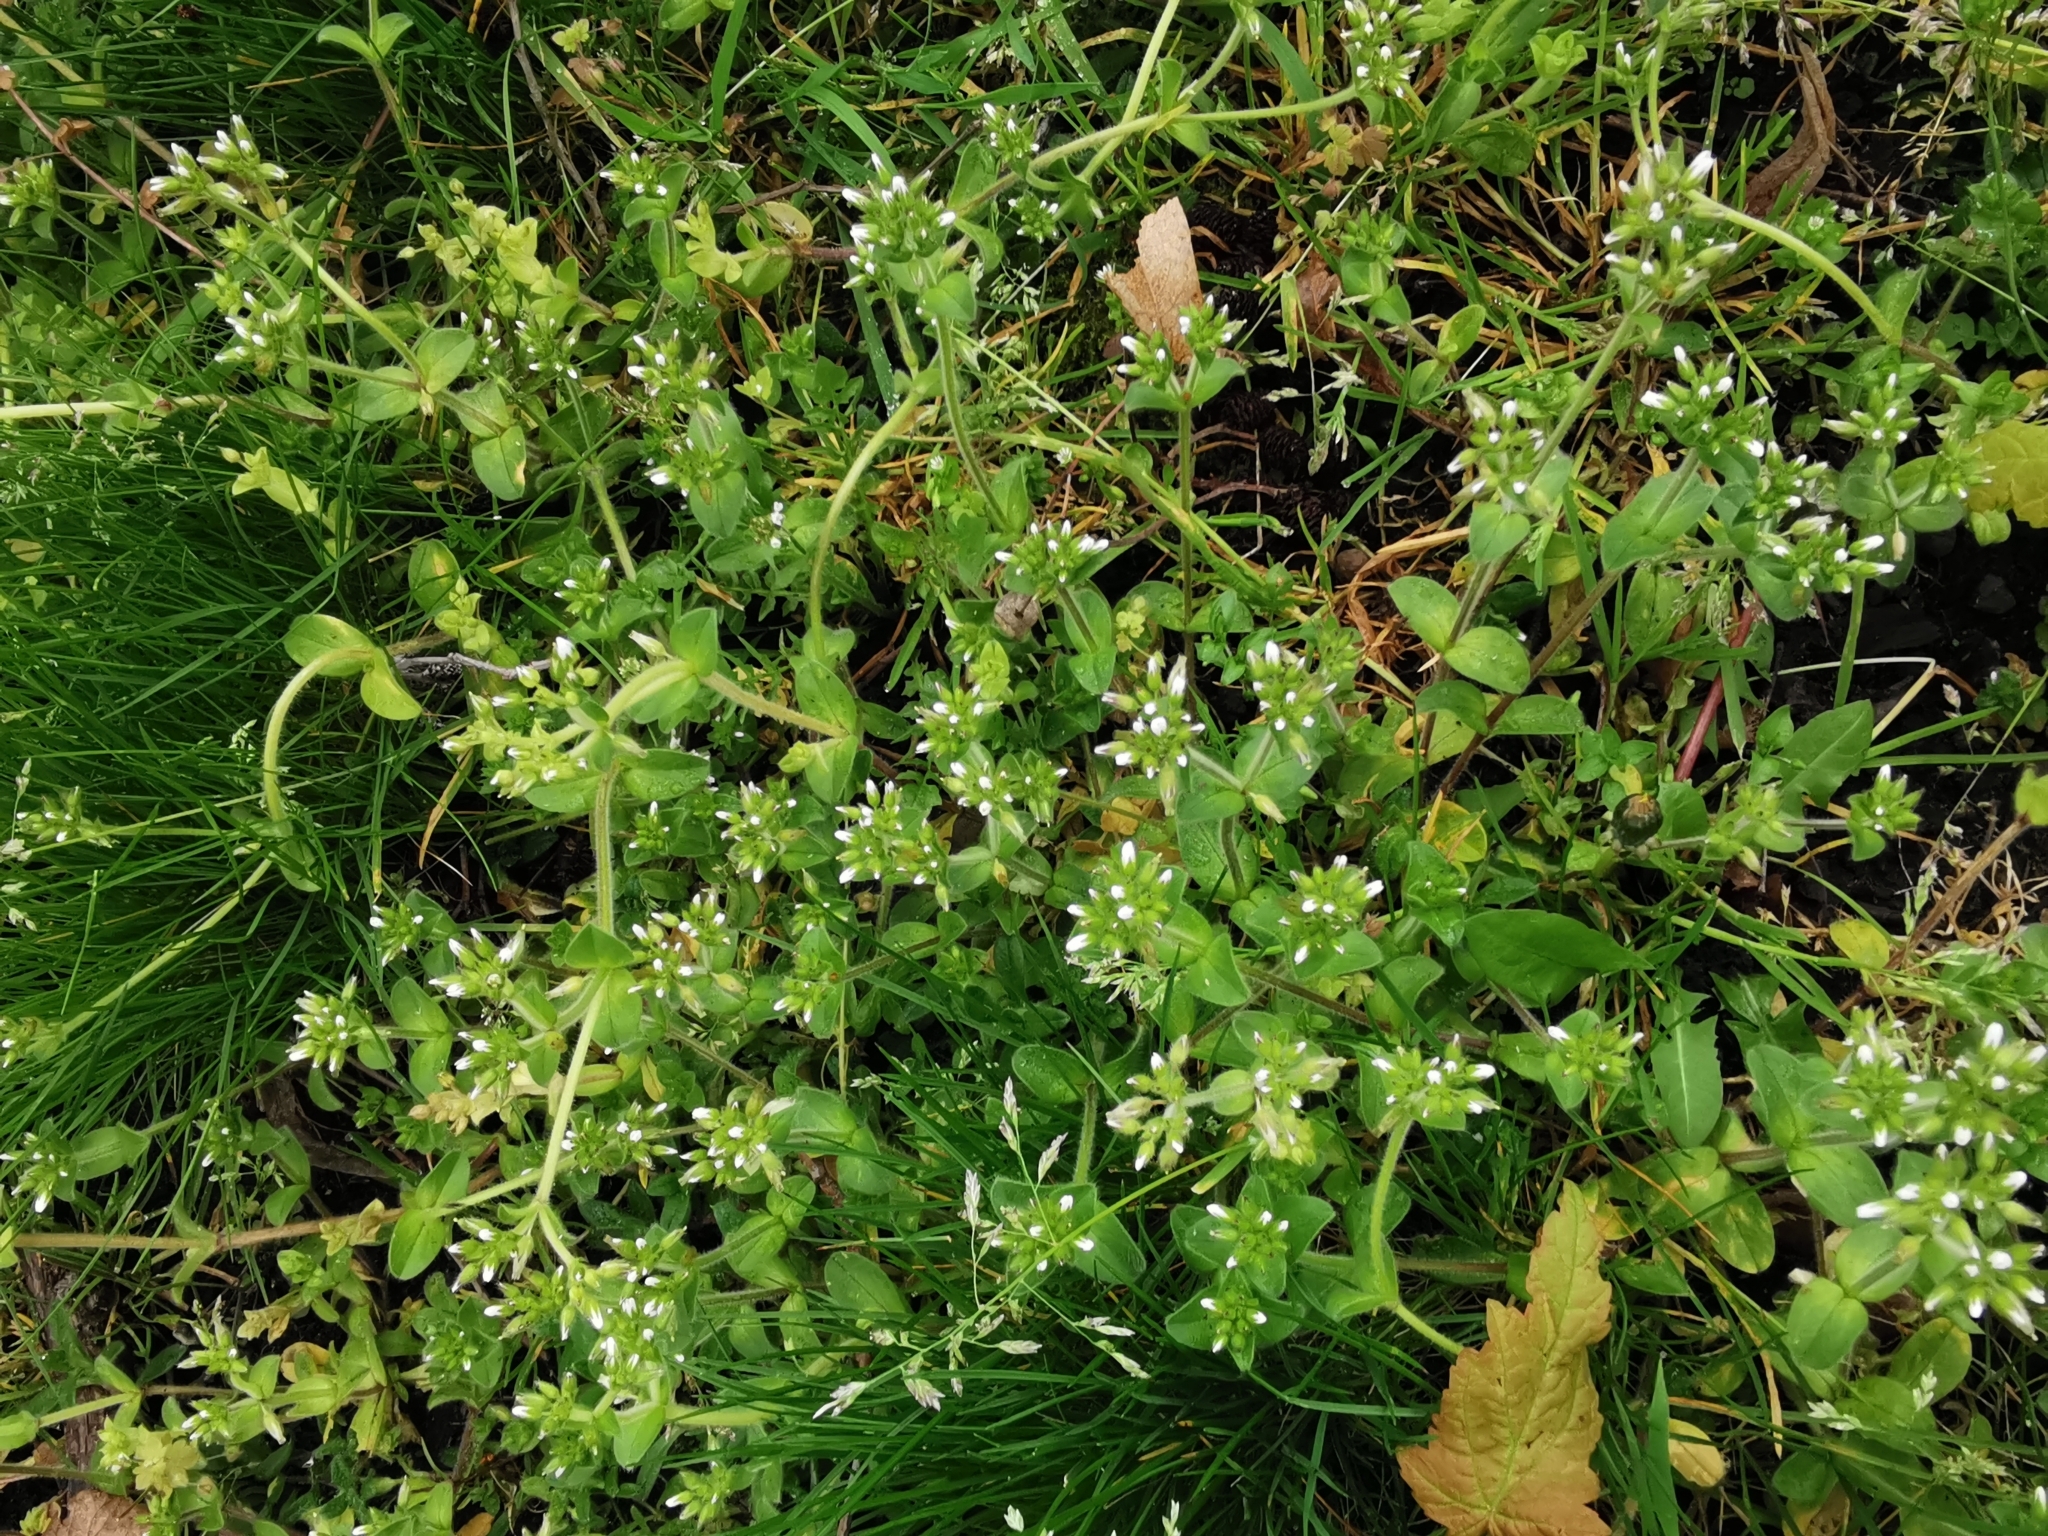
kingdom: Plantae
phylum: Tracheophyta
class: Magnoliopsida
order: Caryophyllales
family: Caryophyllaceae
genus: Cerastium
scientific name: Cerastium glomeratum
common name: Sticky chickweed
